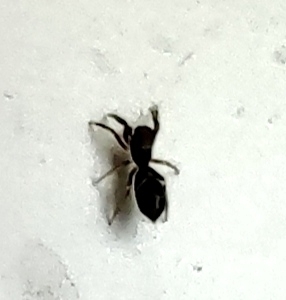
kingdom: Animalia
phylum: Arthropoda
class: Arachnida
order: Araneae
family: Salticidae
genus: Synageles
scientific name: Synageles
